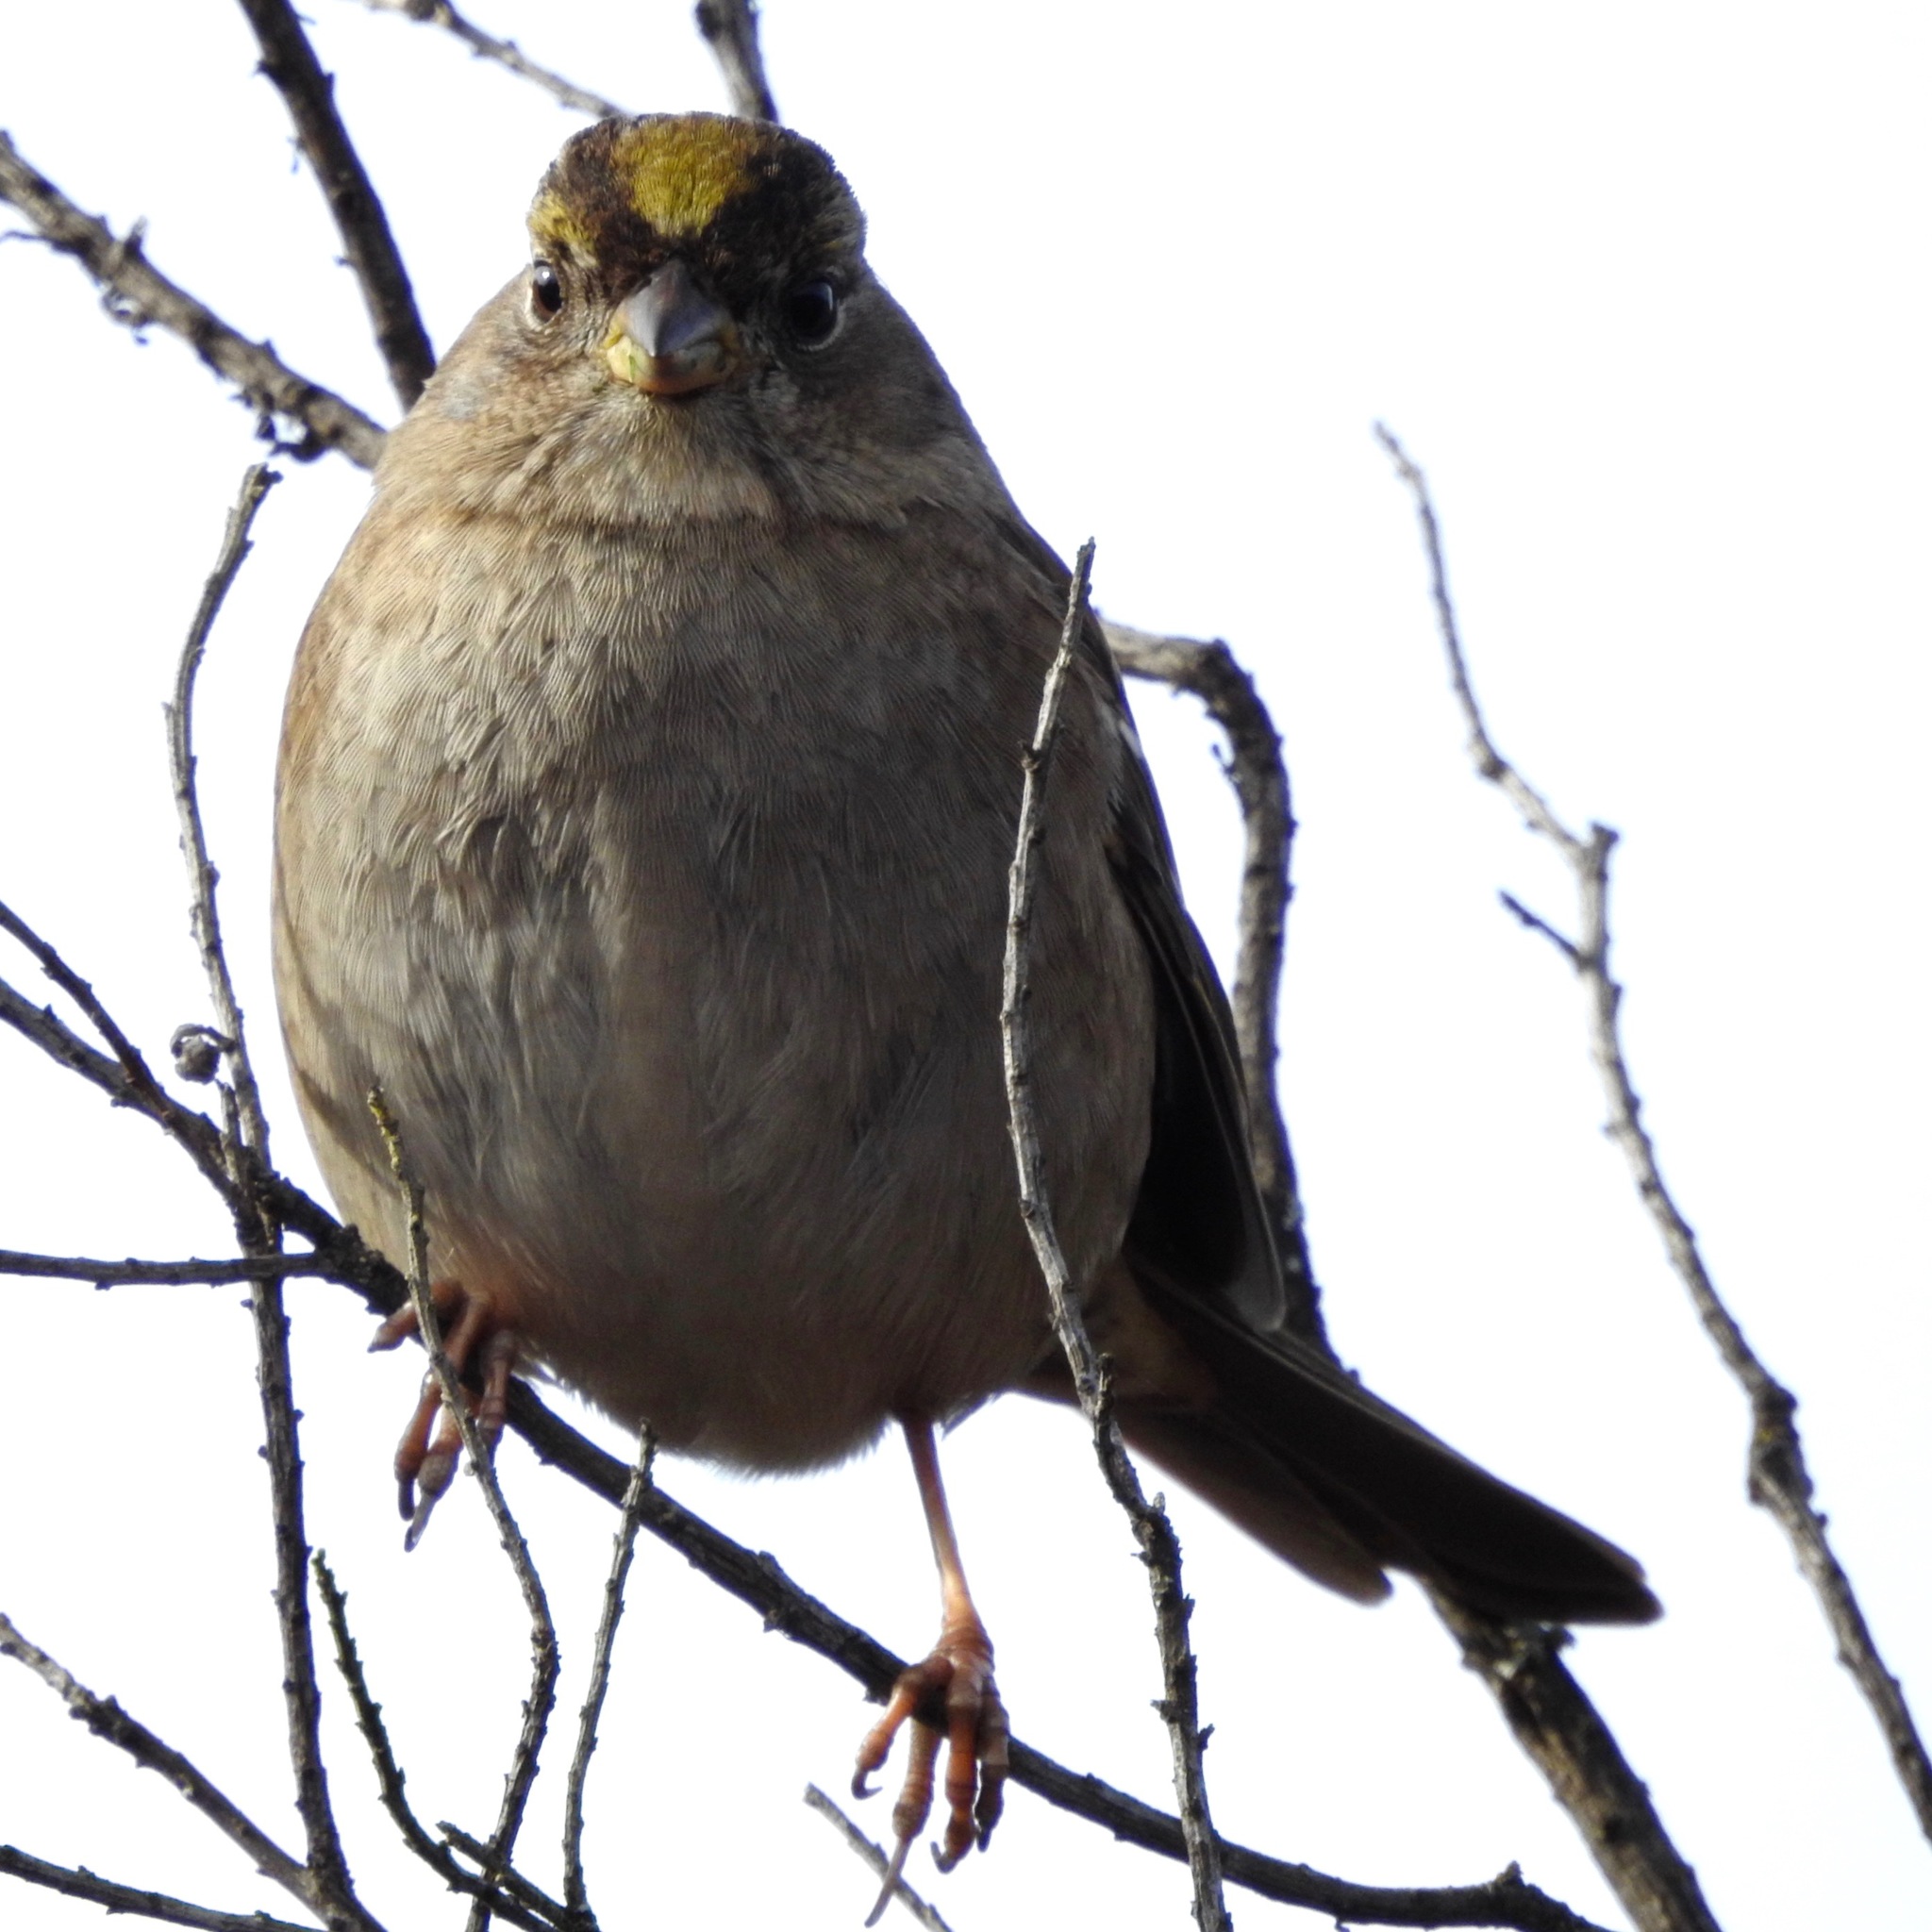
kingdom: Animalia
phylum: Chordata
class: Aves
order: Passeriformes
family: Passerellidae
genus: Zonotrichia
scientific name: Zonotrichia atricapilla
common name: Golden-crowned sparrow
